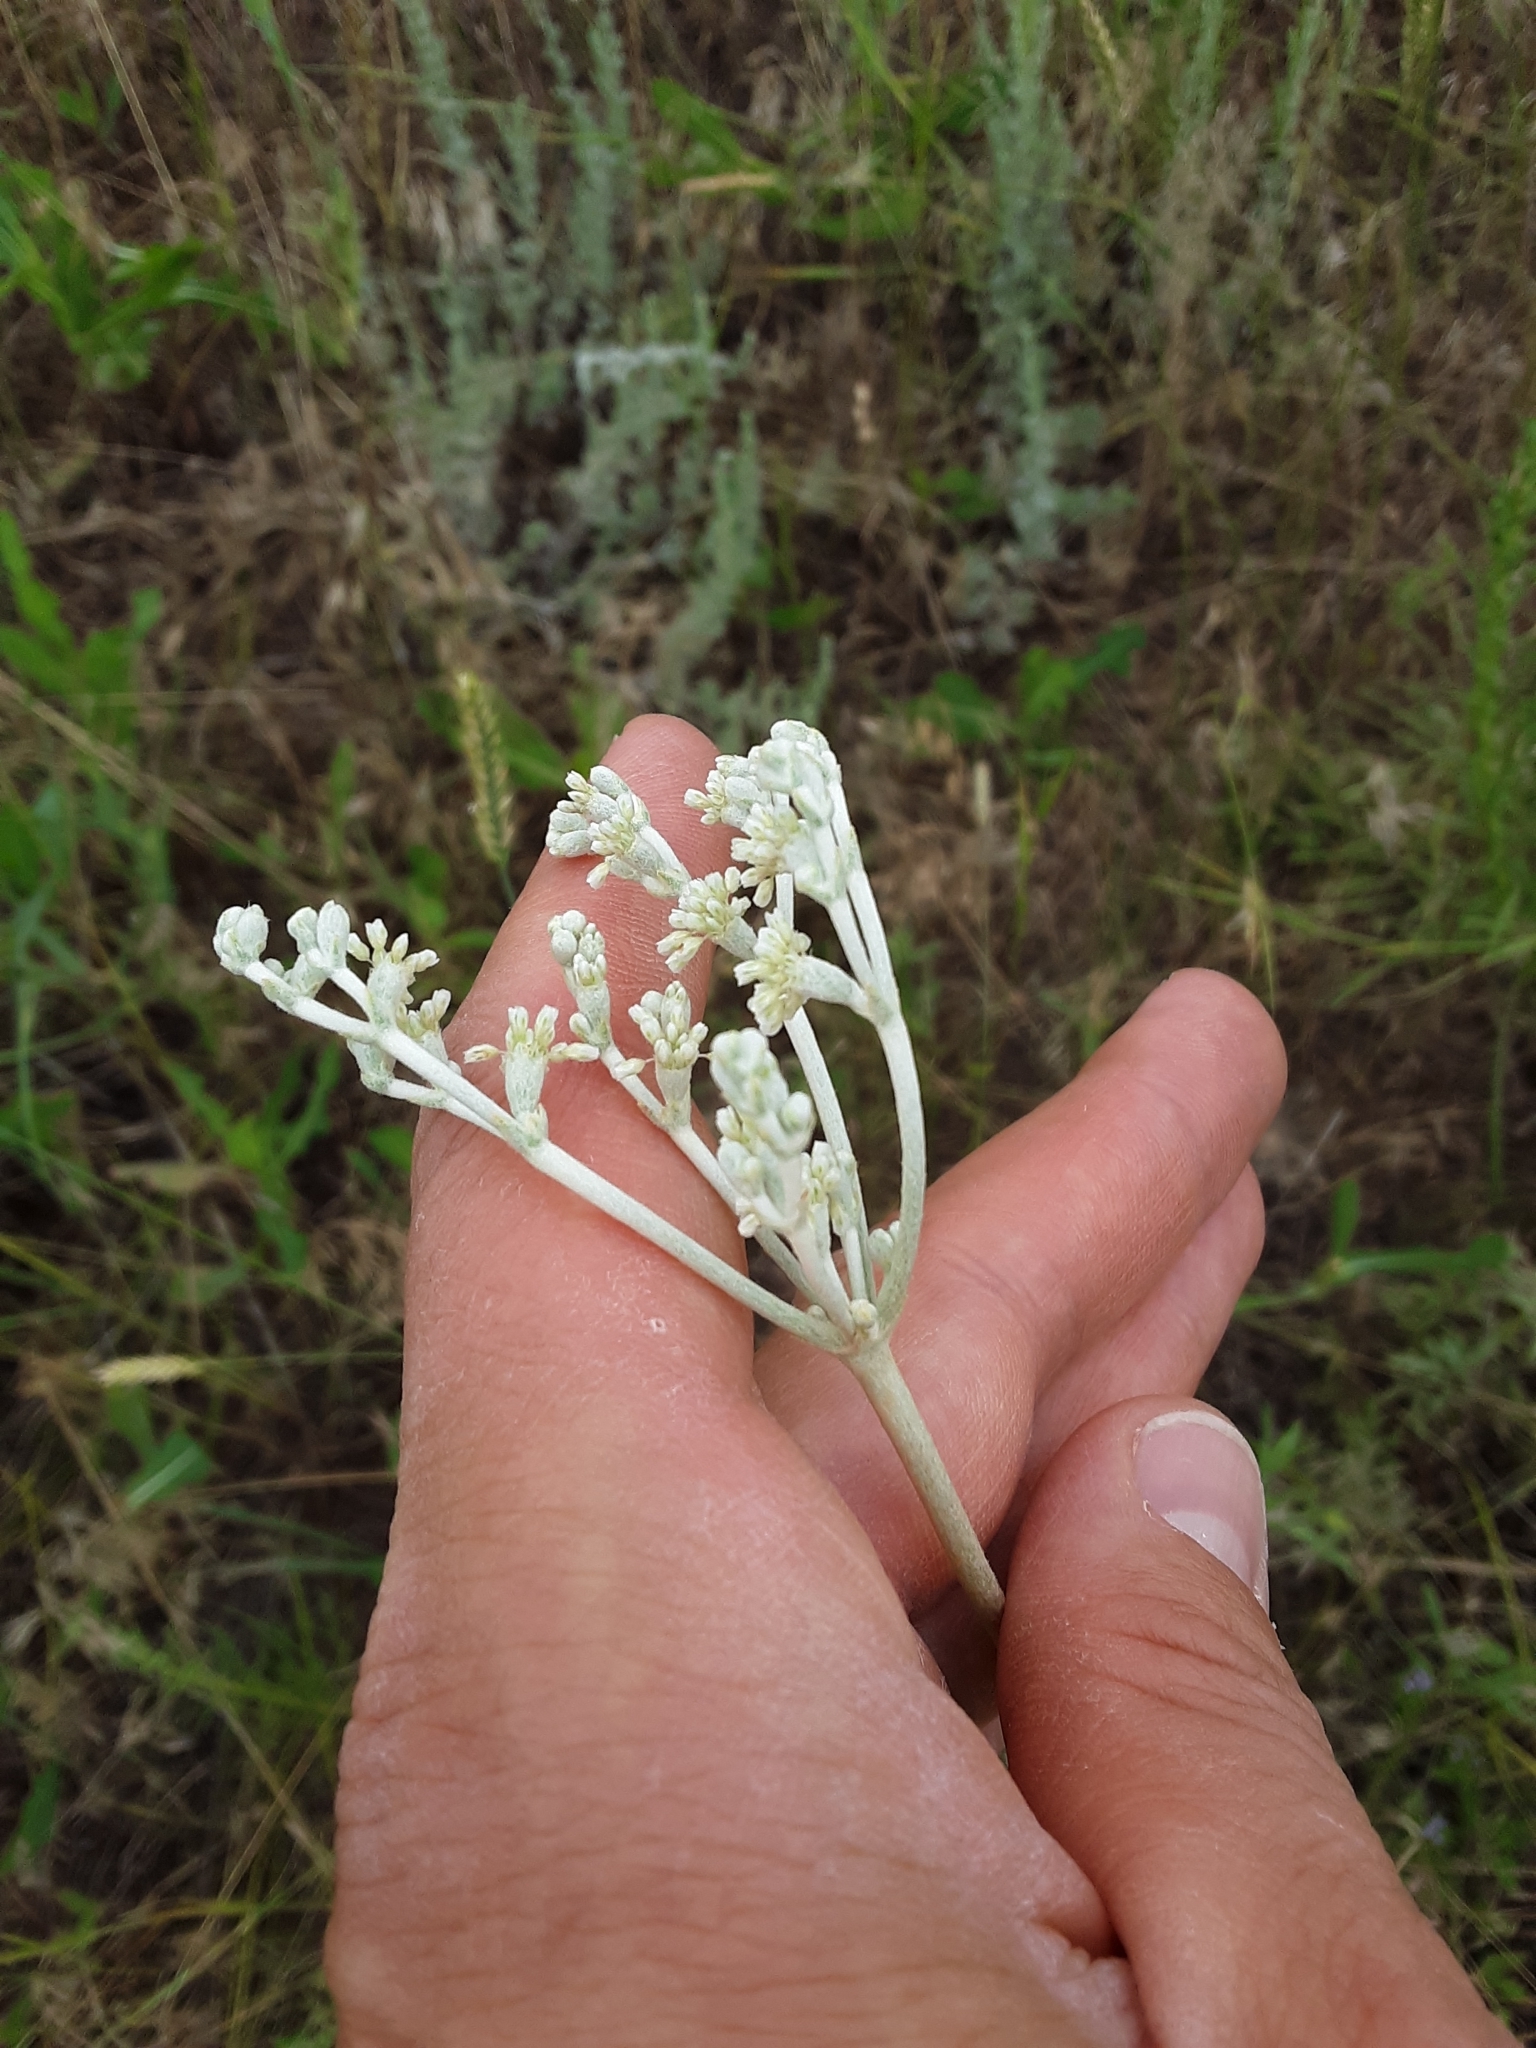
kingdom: Plantae
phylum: Tracheophyta
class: Magnoliopsida
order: Caryophyllales
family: Polygonaceae
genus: Eriogonum
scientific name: Eriogonum annuum
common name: Annual wild buckwheat
